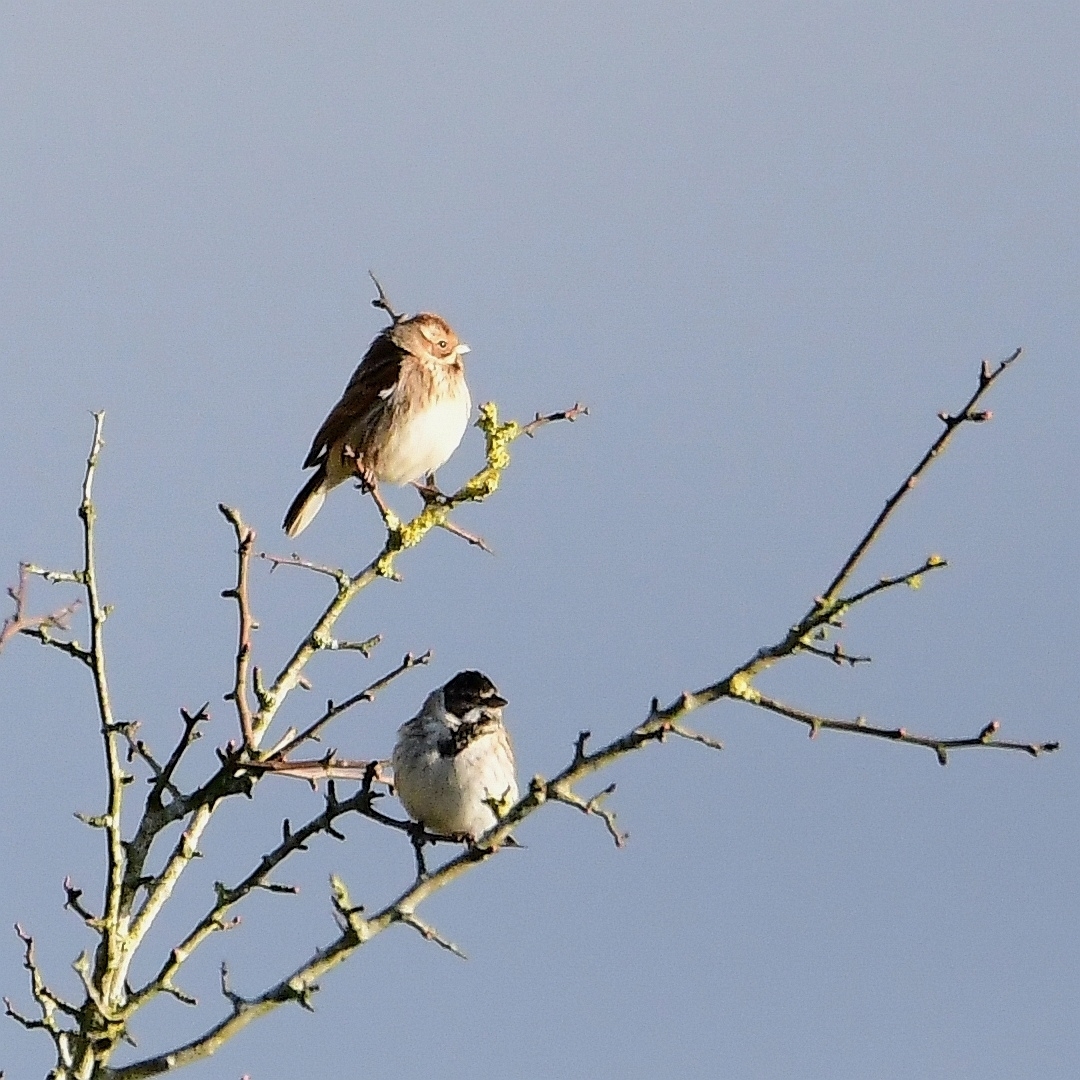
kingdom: Animalia
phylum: Chordata
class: Aves
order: Passeriformes
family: Emberizidae
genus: Emberiza
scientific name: Emberiza schoeniclus
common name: Reed bunting
